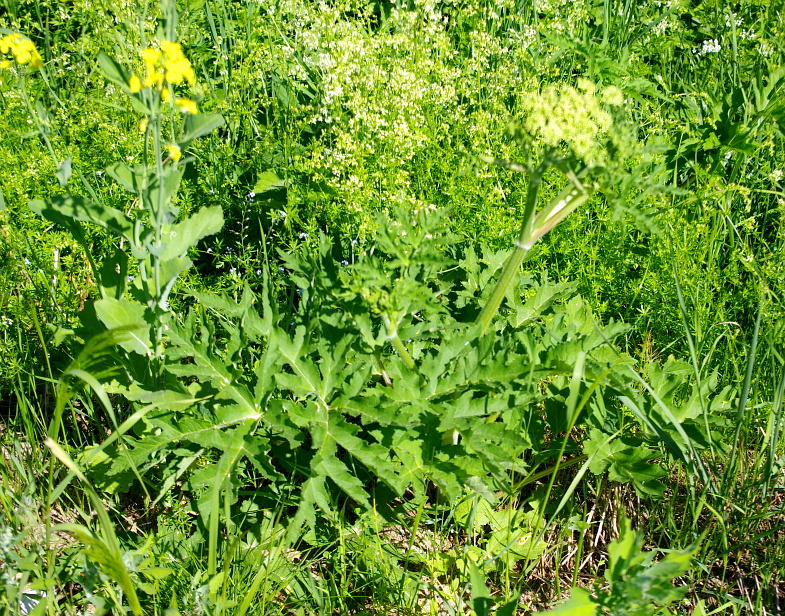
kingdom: Plantae
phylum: Tracheophyta
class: Magnoliopsida
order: Apiales
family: Apiaceae
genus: Heracleum
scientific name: Heracleum sphondylium
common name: Hogweed
